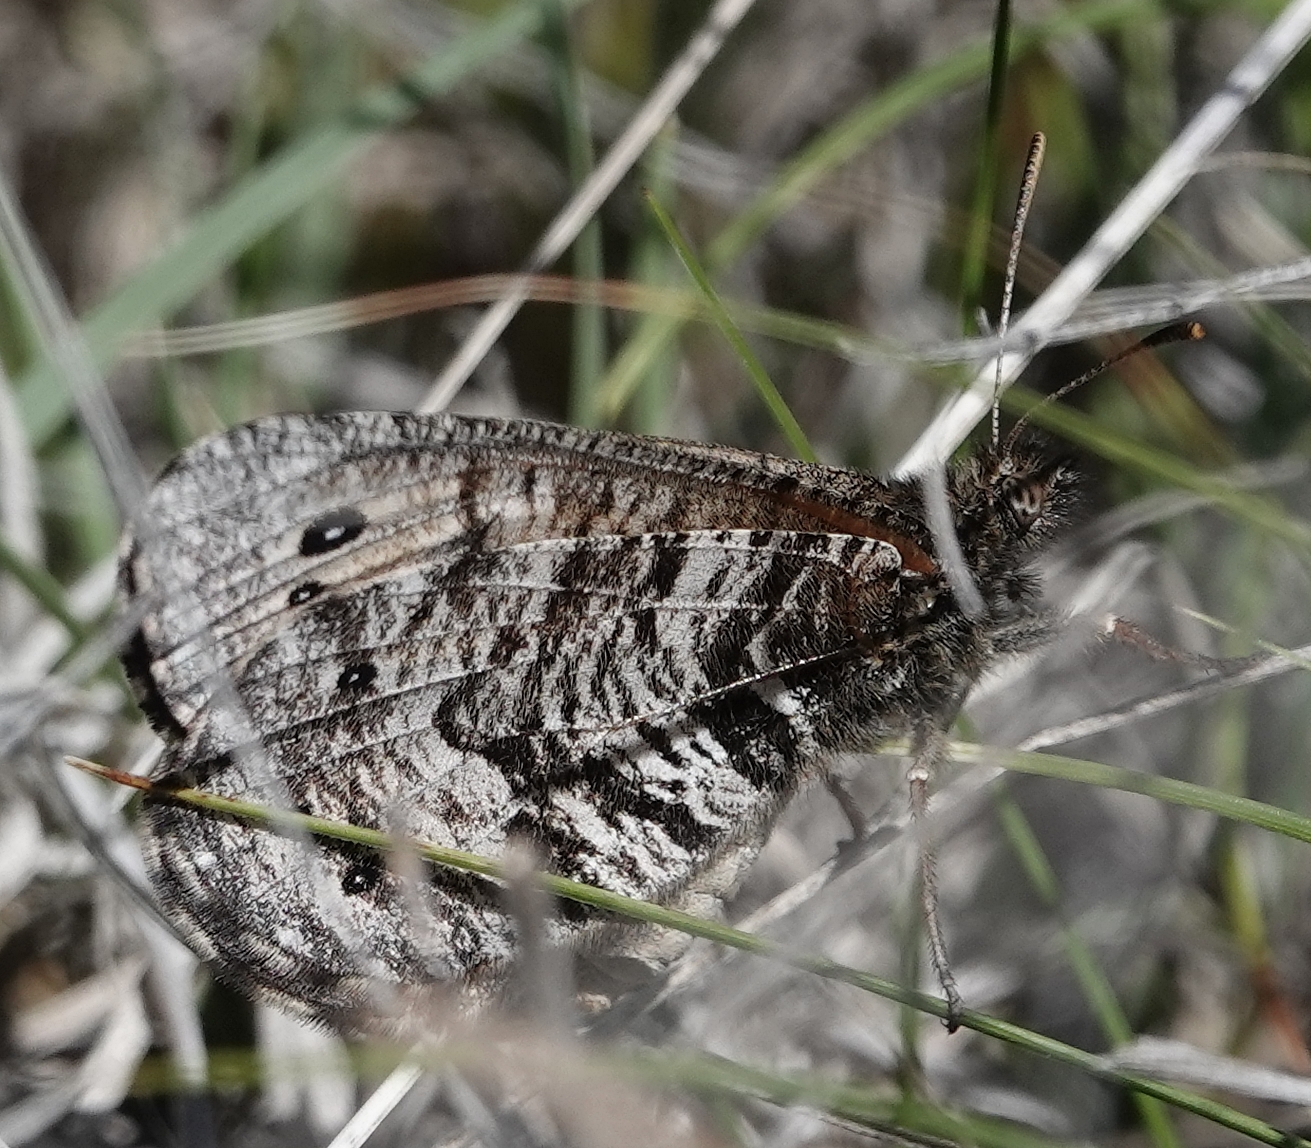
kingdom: Animalia
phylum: Arthropoda
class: Insecta
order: Lepidoptera
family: Nymphalidae
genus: Oeneis
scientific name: Oeneis uhleri
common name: Uhler's arctic
